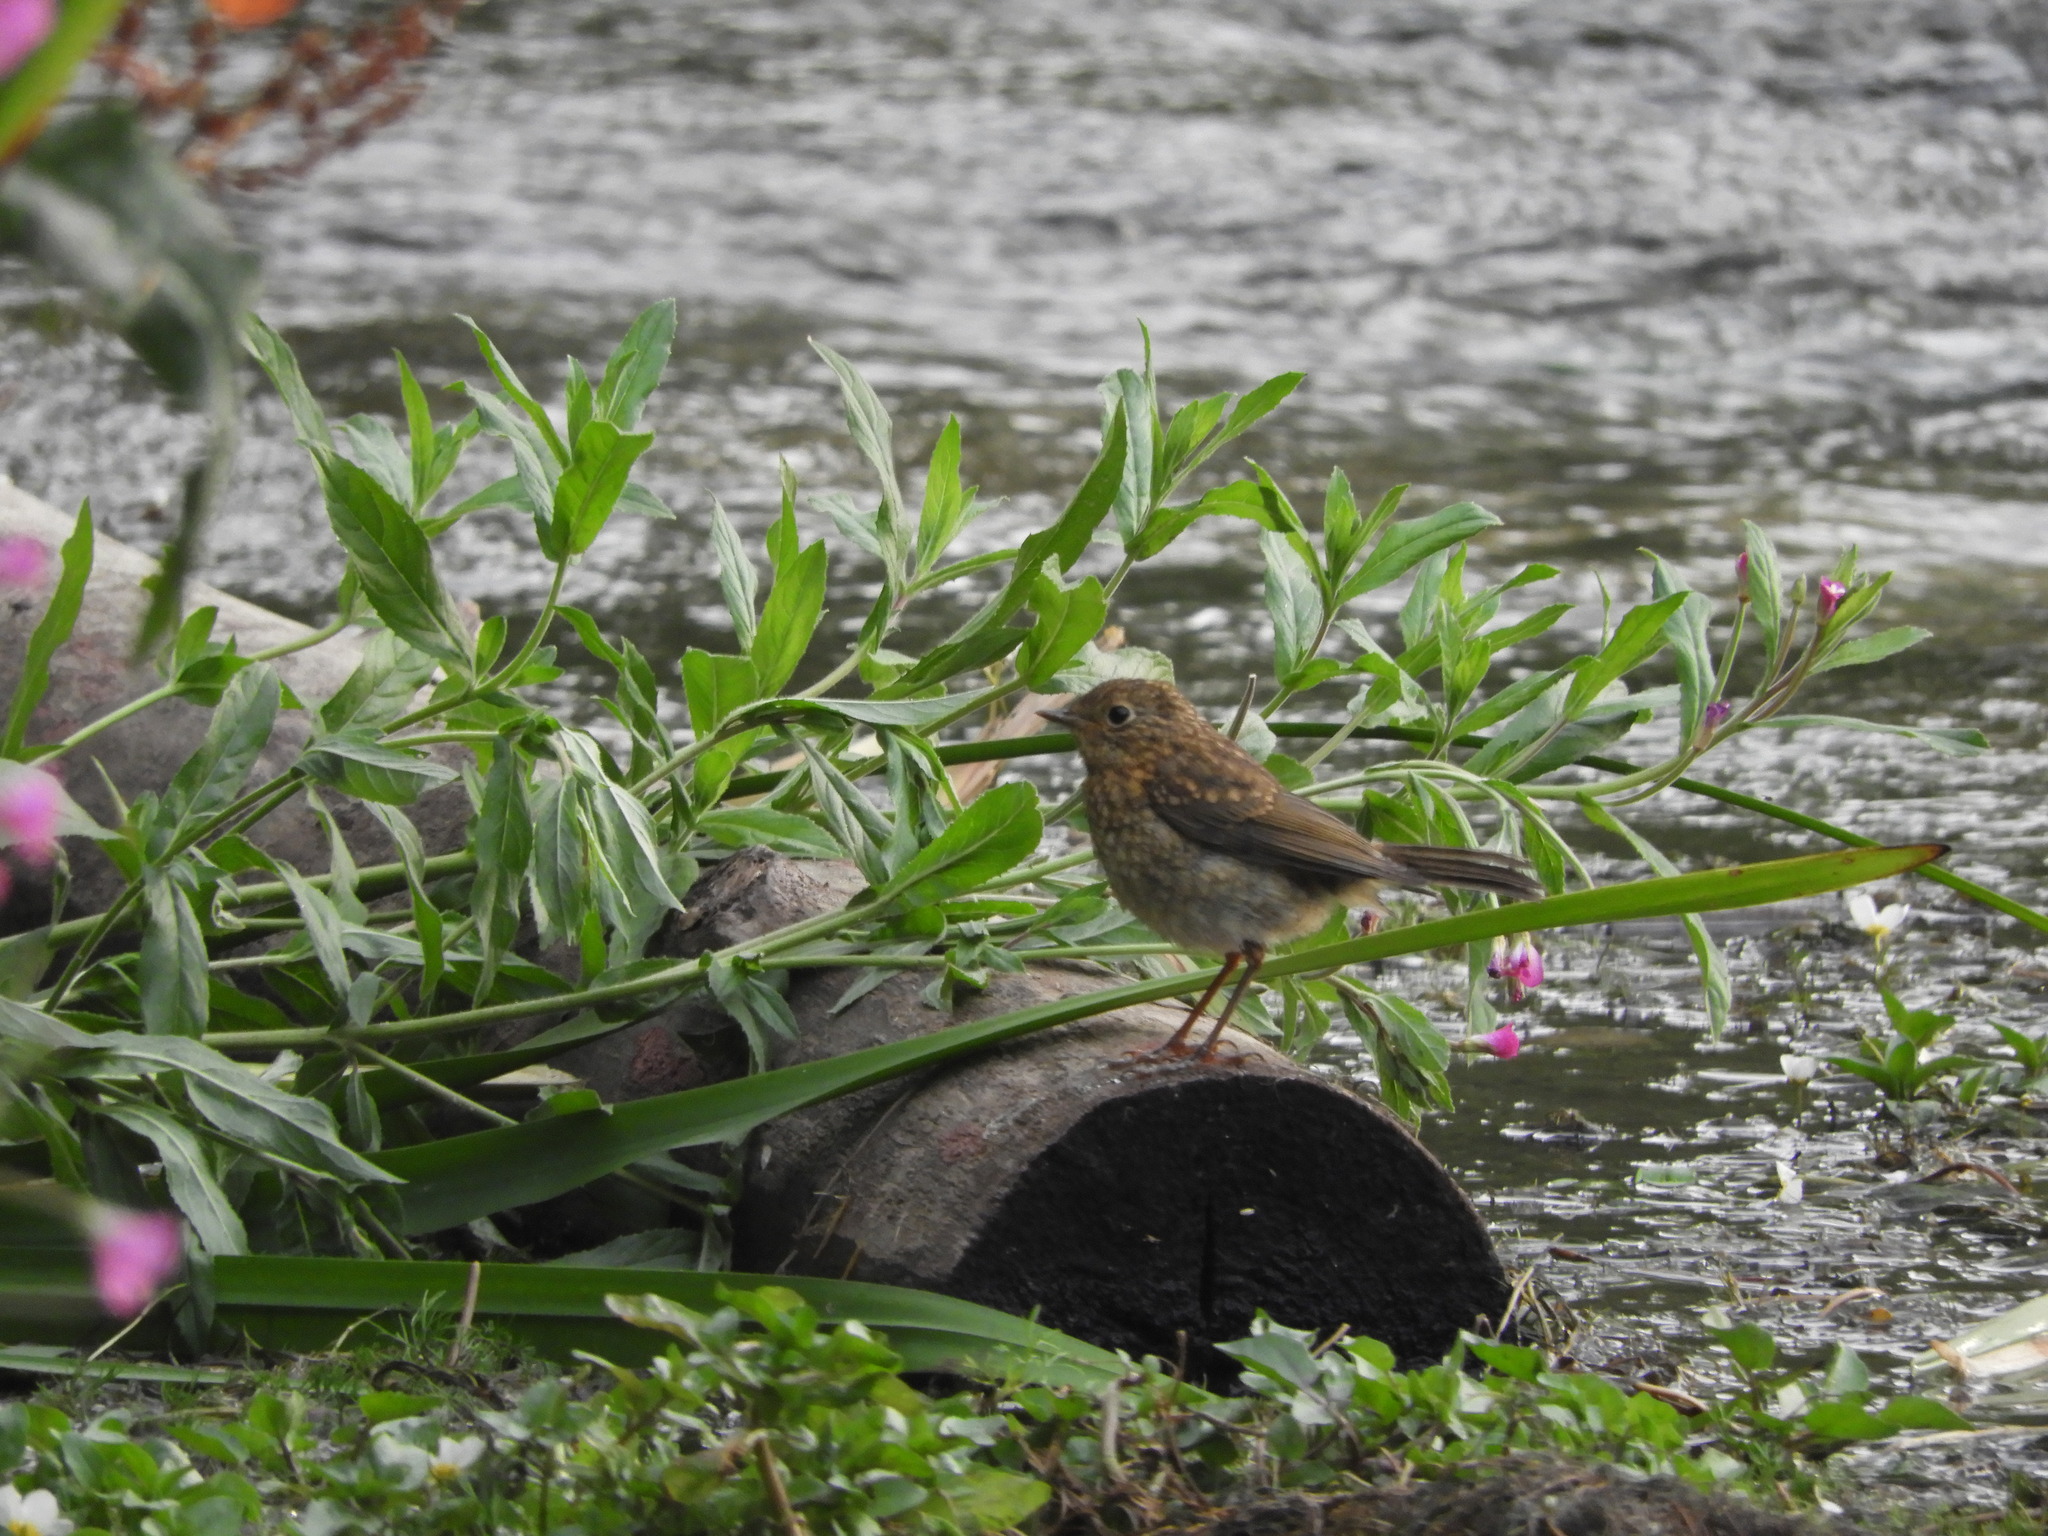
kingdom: Animalia
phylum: Chordata
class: Aves
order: Passeriformes
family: Muscicapidae
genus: Erithacus
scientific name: Erithacus rubecula
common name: European robin
